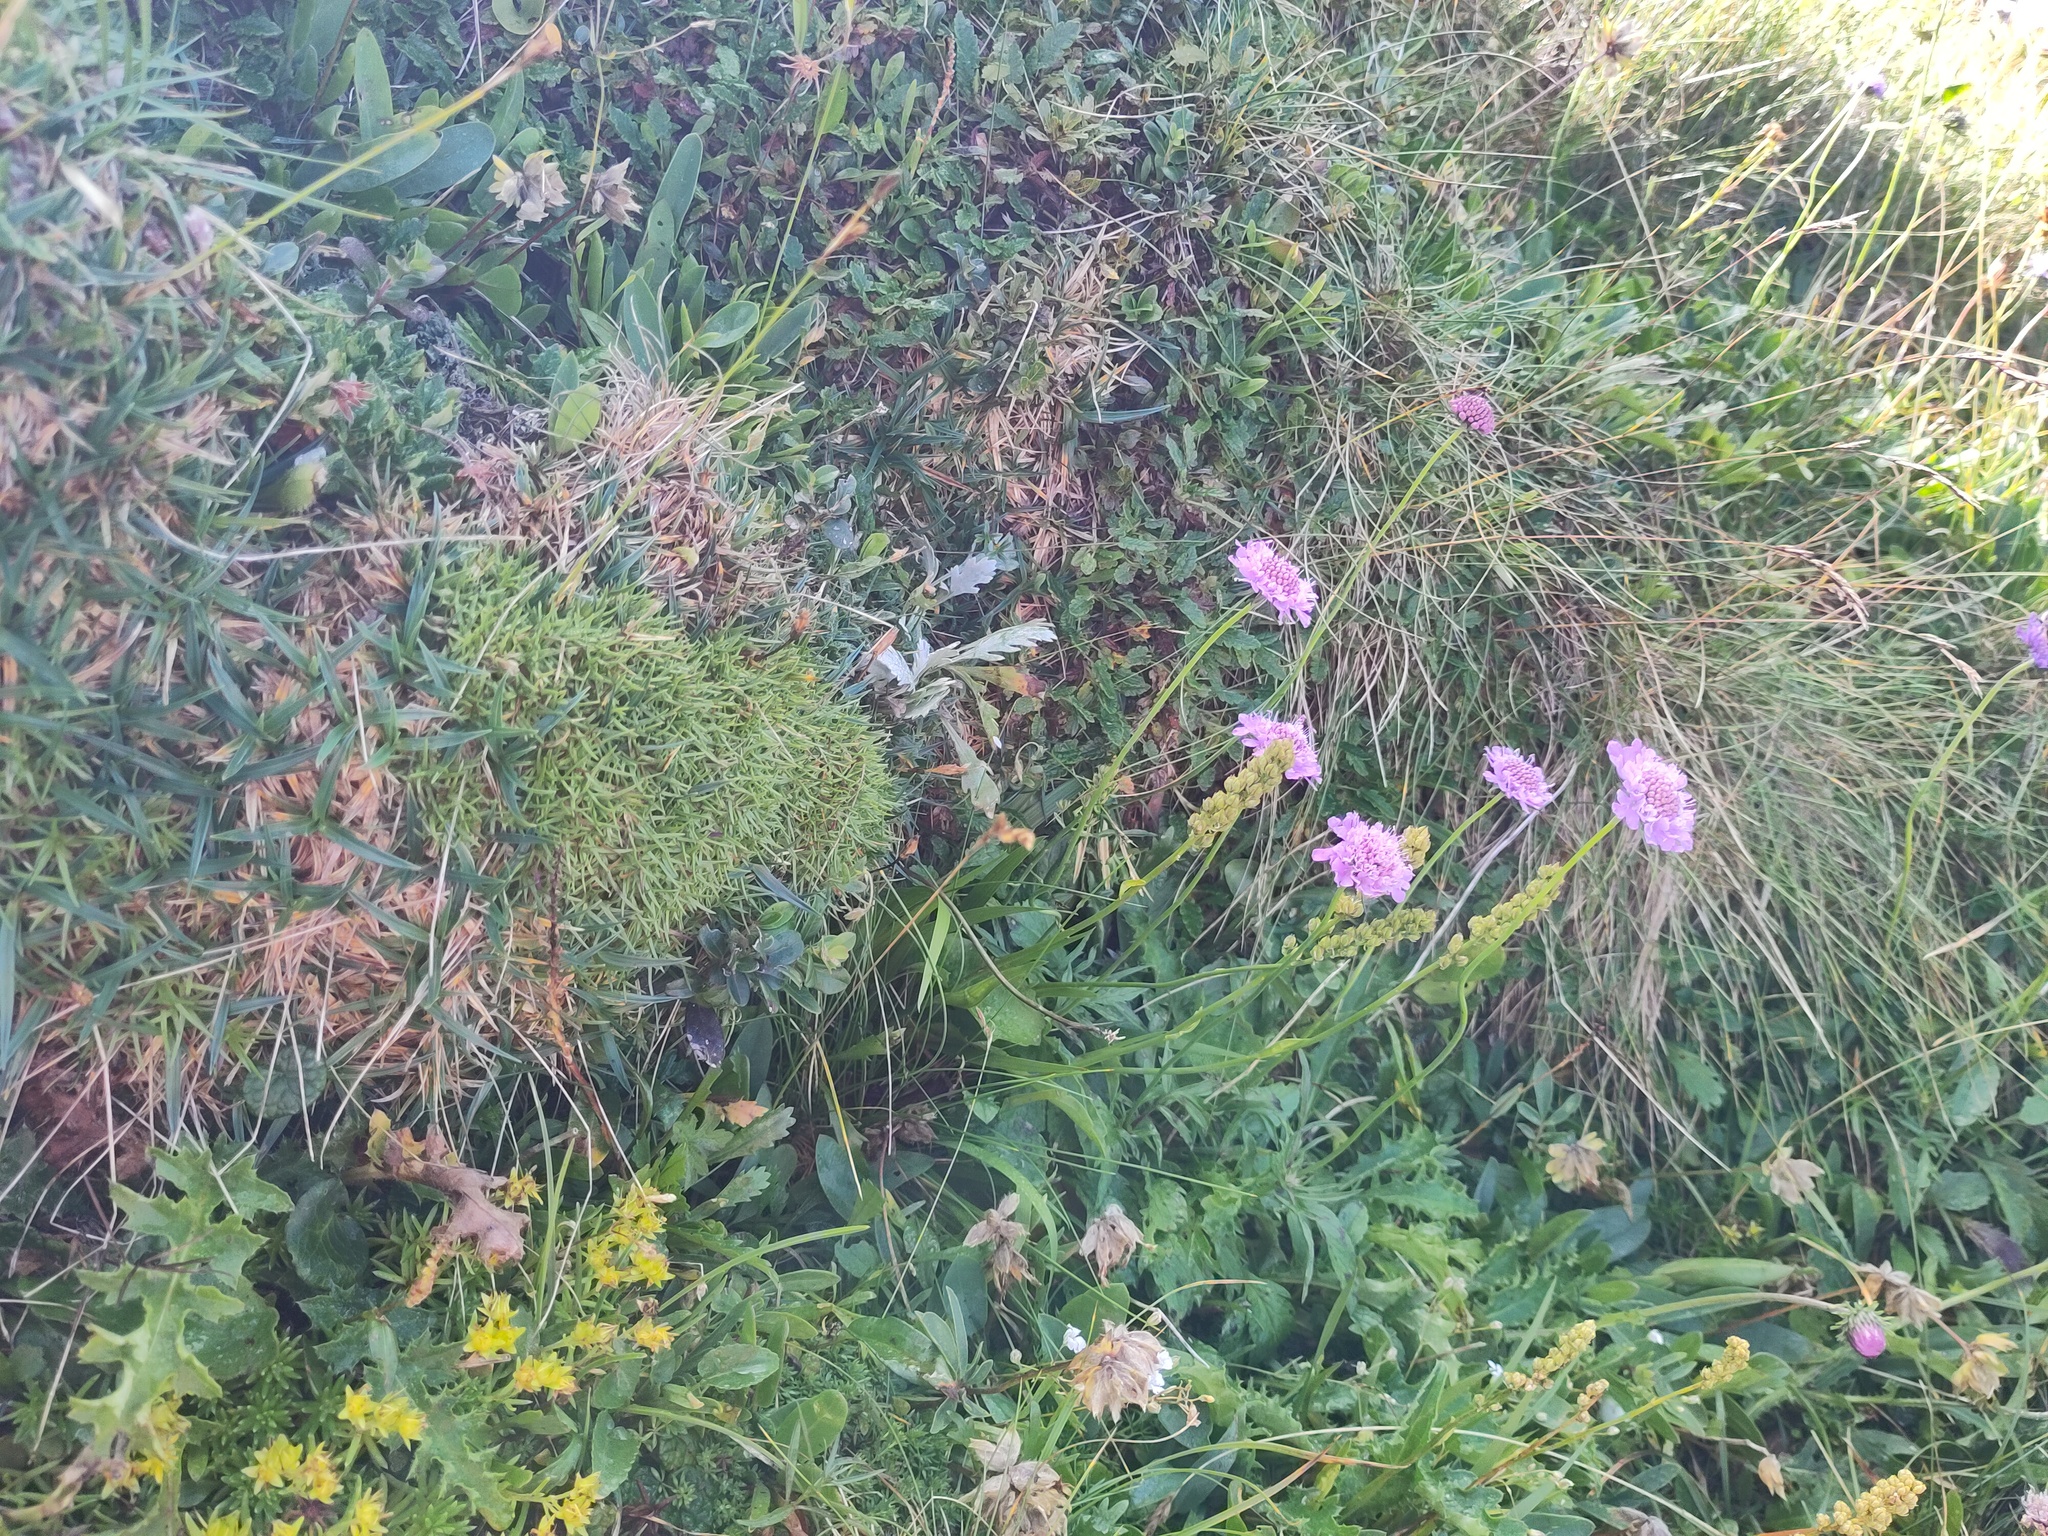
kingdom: Plantae
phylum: Tracheophyta
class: Magnoliopsida
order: Dipsacales
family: Caprifoliaceae
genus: Scabiosa
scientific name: Scabiosa lucida
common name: Shining scabious
